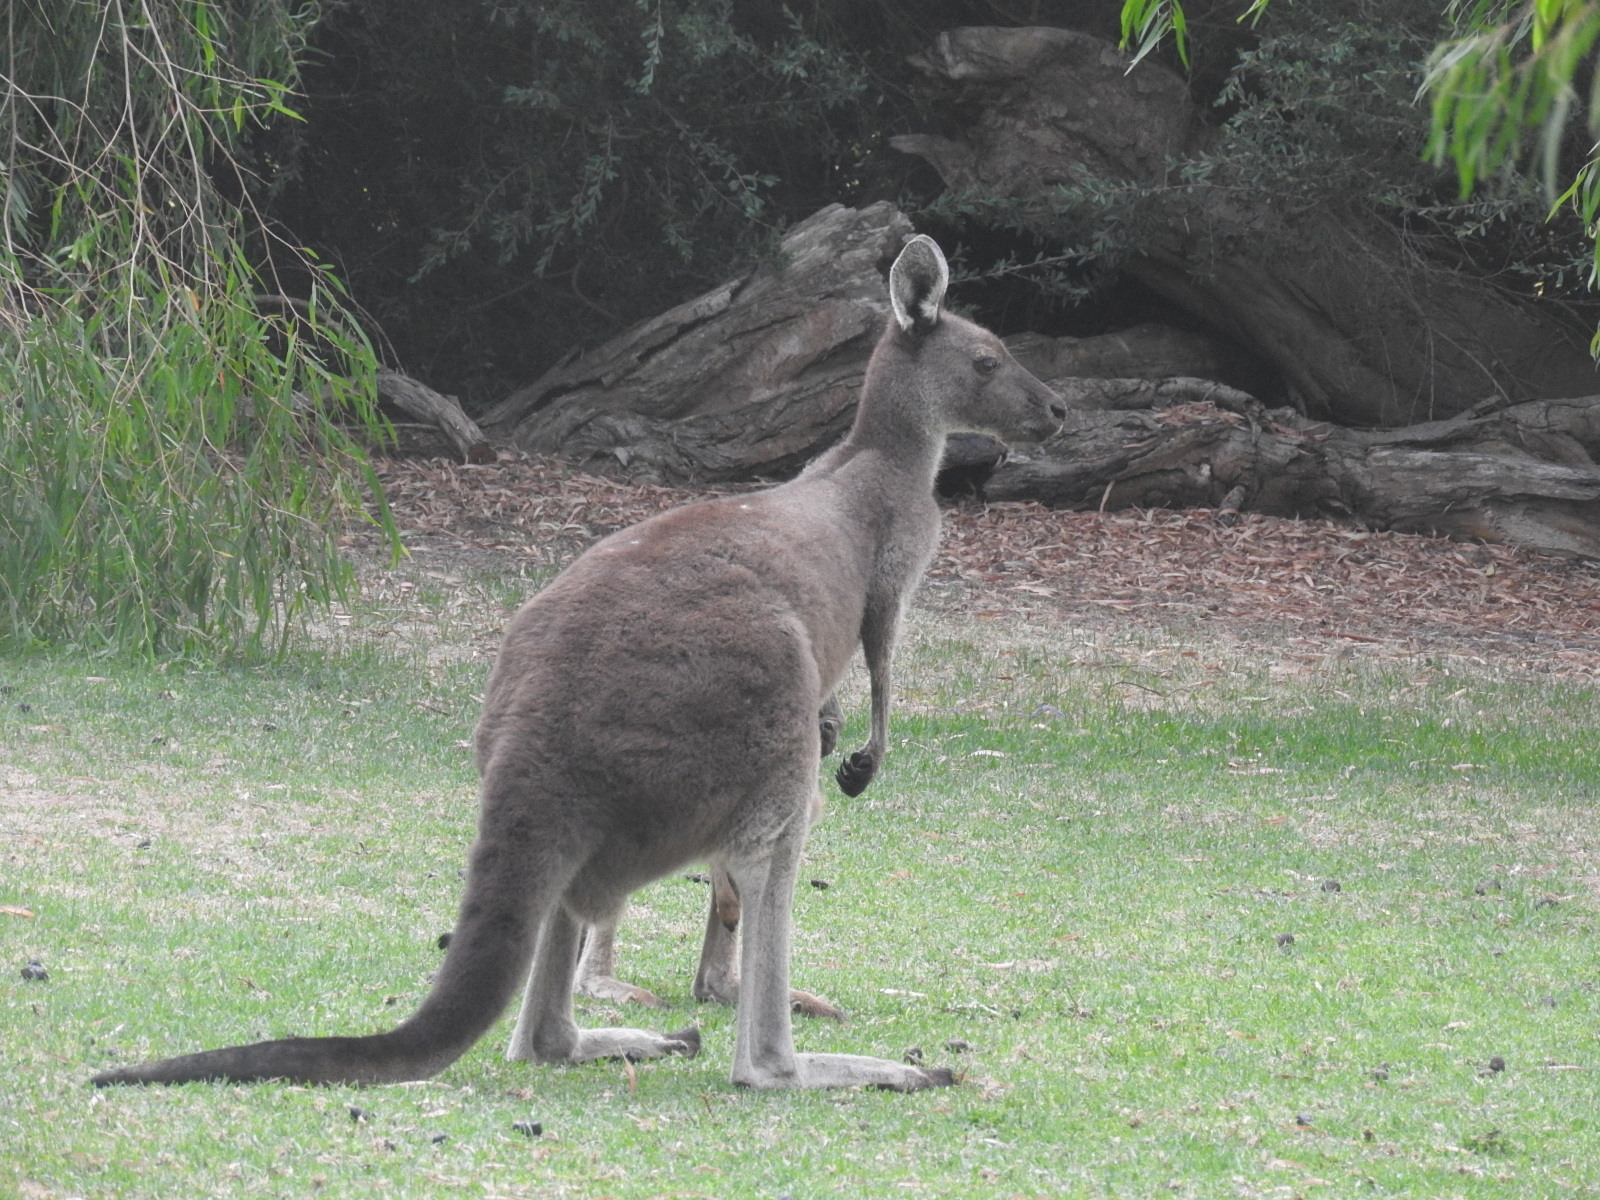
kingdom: Animalia
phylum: Chordata
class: Mammalia
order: Diprotodontia
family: Macropodidae
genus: Macropus
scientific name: Macropus fuliginosus
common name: Western grey kangaroo
